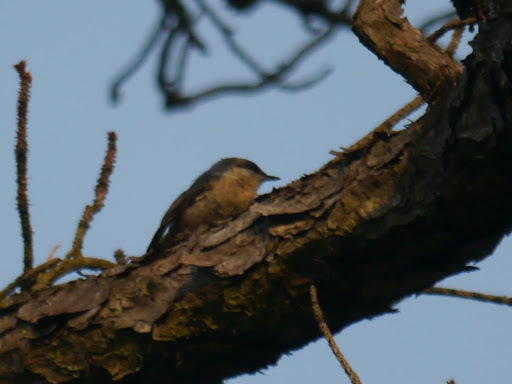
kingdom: Animalia
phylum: Chordata
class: Aves
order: Passeriformes
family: Sittidae
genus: Sitta
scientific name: Sitta pusilla
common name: Brown-headed nuthatch
